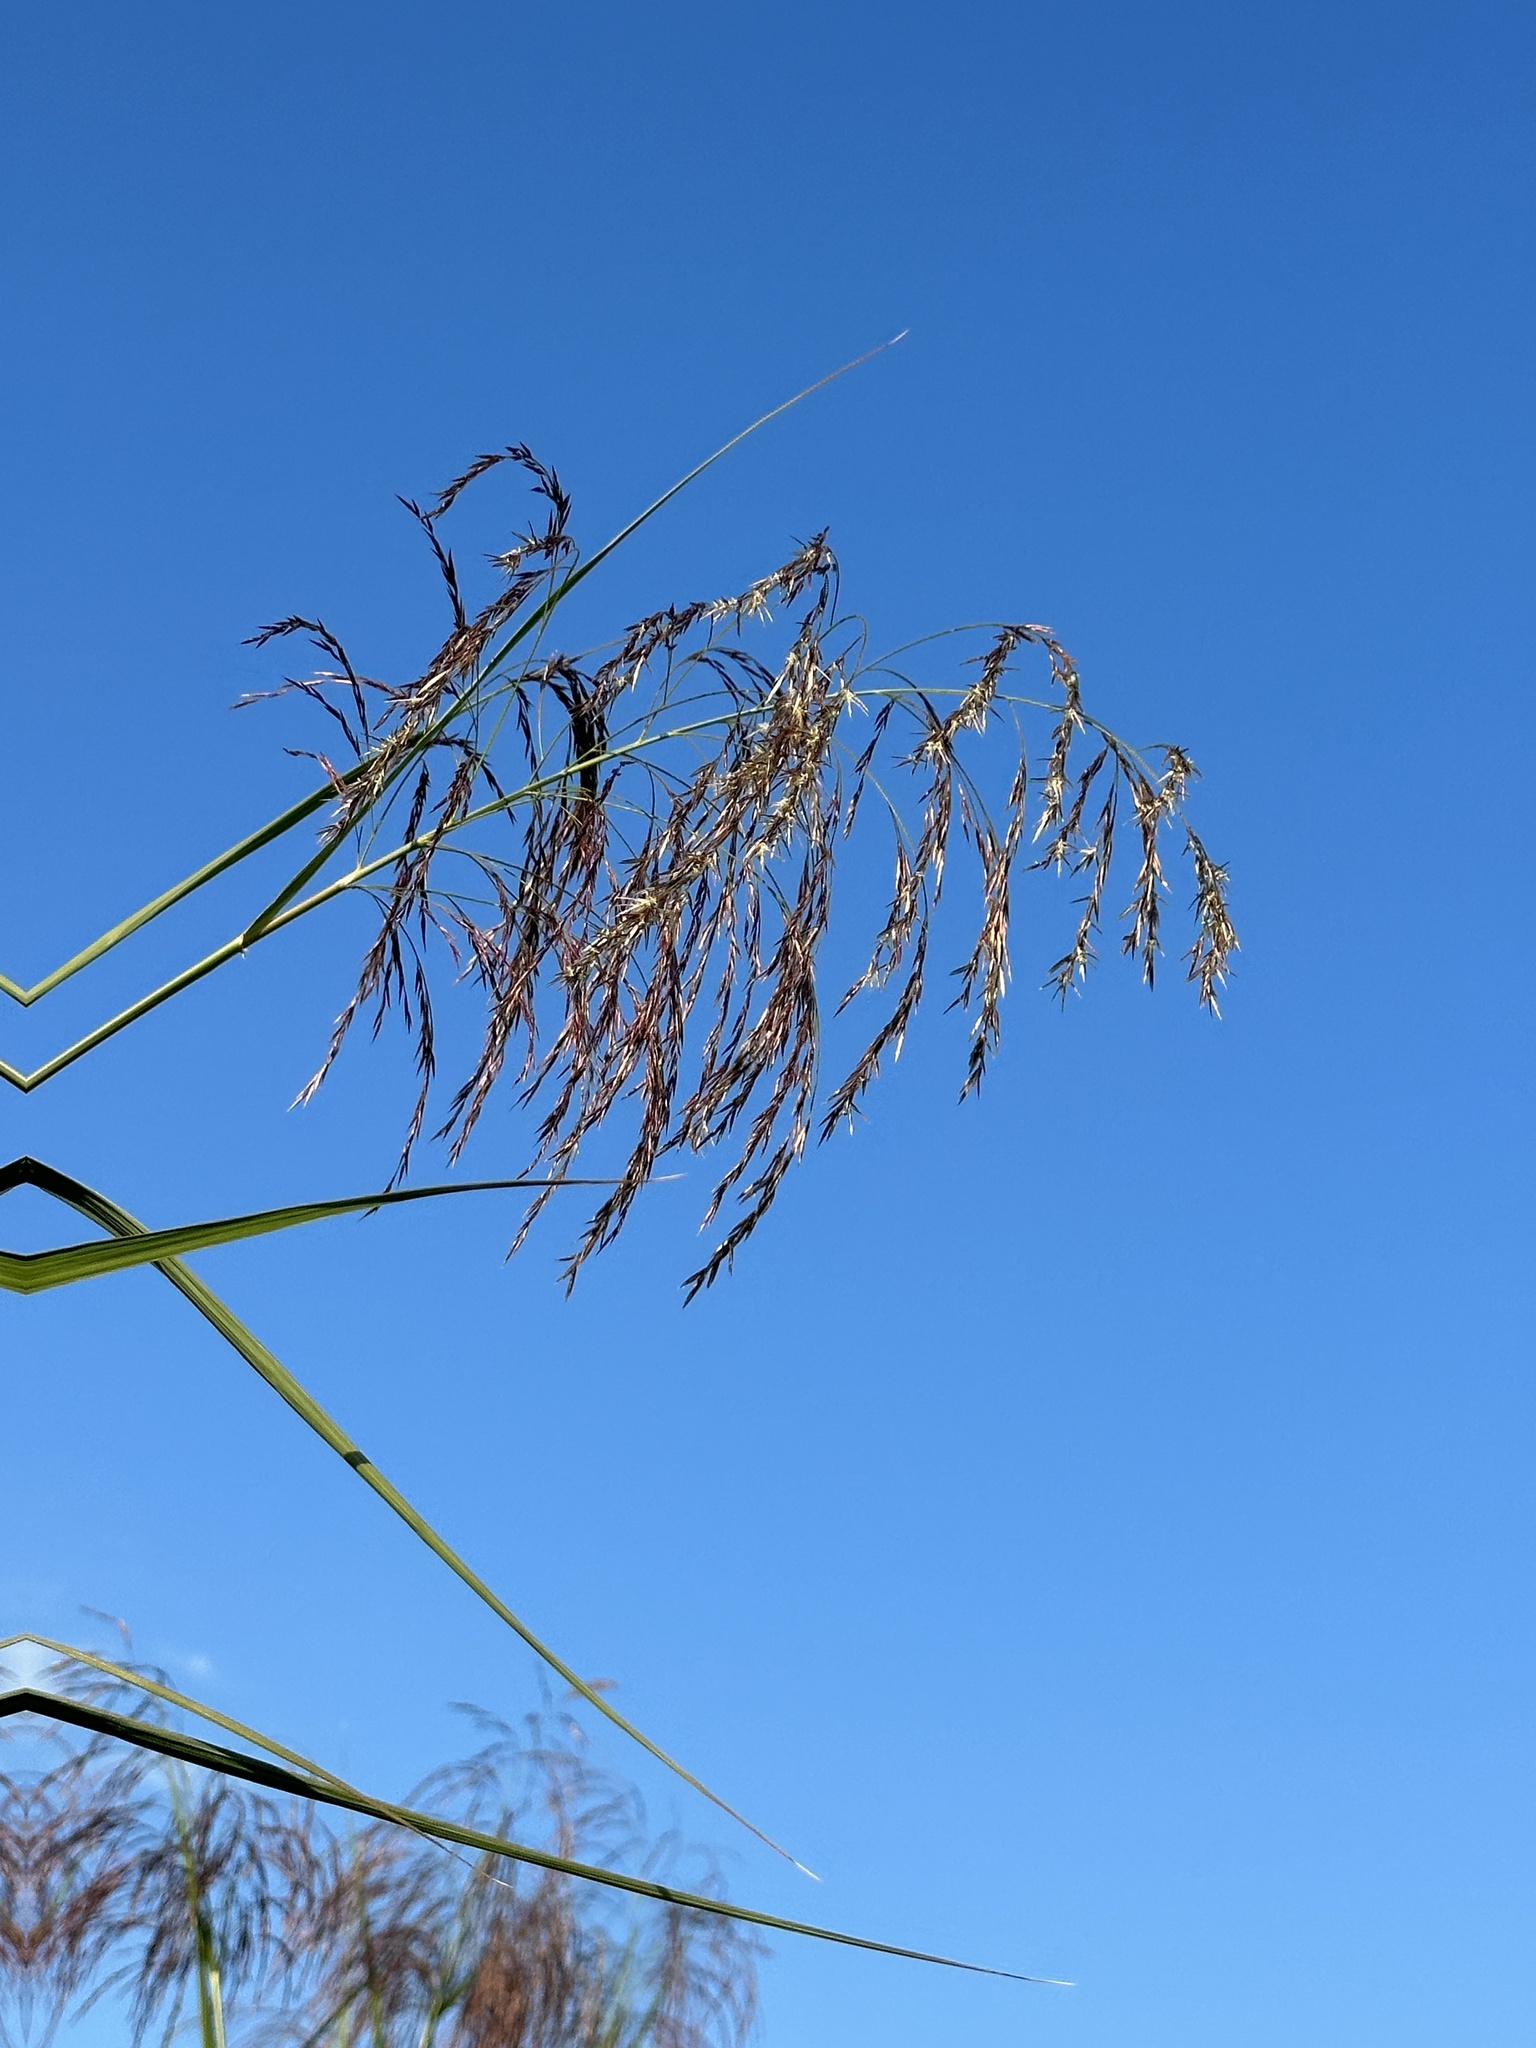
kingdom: Plantae
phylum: Tracheophyta
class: Liliopsida
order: Poales
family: Poaceae
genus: Phragmites
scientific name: Phragmites karka
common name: Tropical reed
